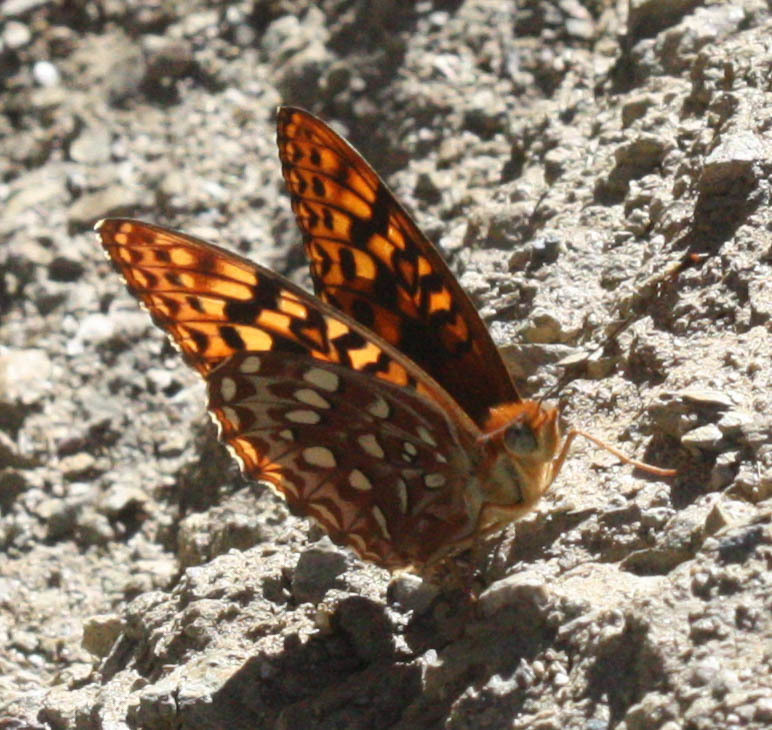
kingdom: Animalia
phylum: Arthropoda
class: Insecta
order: Lepidoptera
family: Nymphalidae
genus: Speyeria
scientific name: Speyeria zerene
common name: Zerene fritillary
